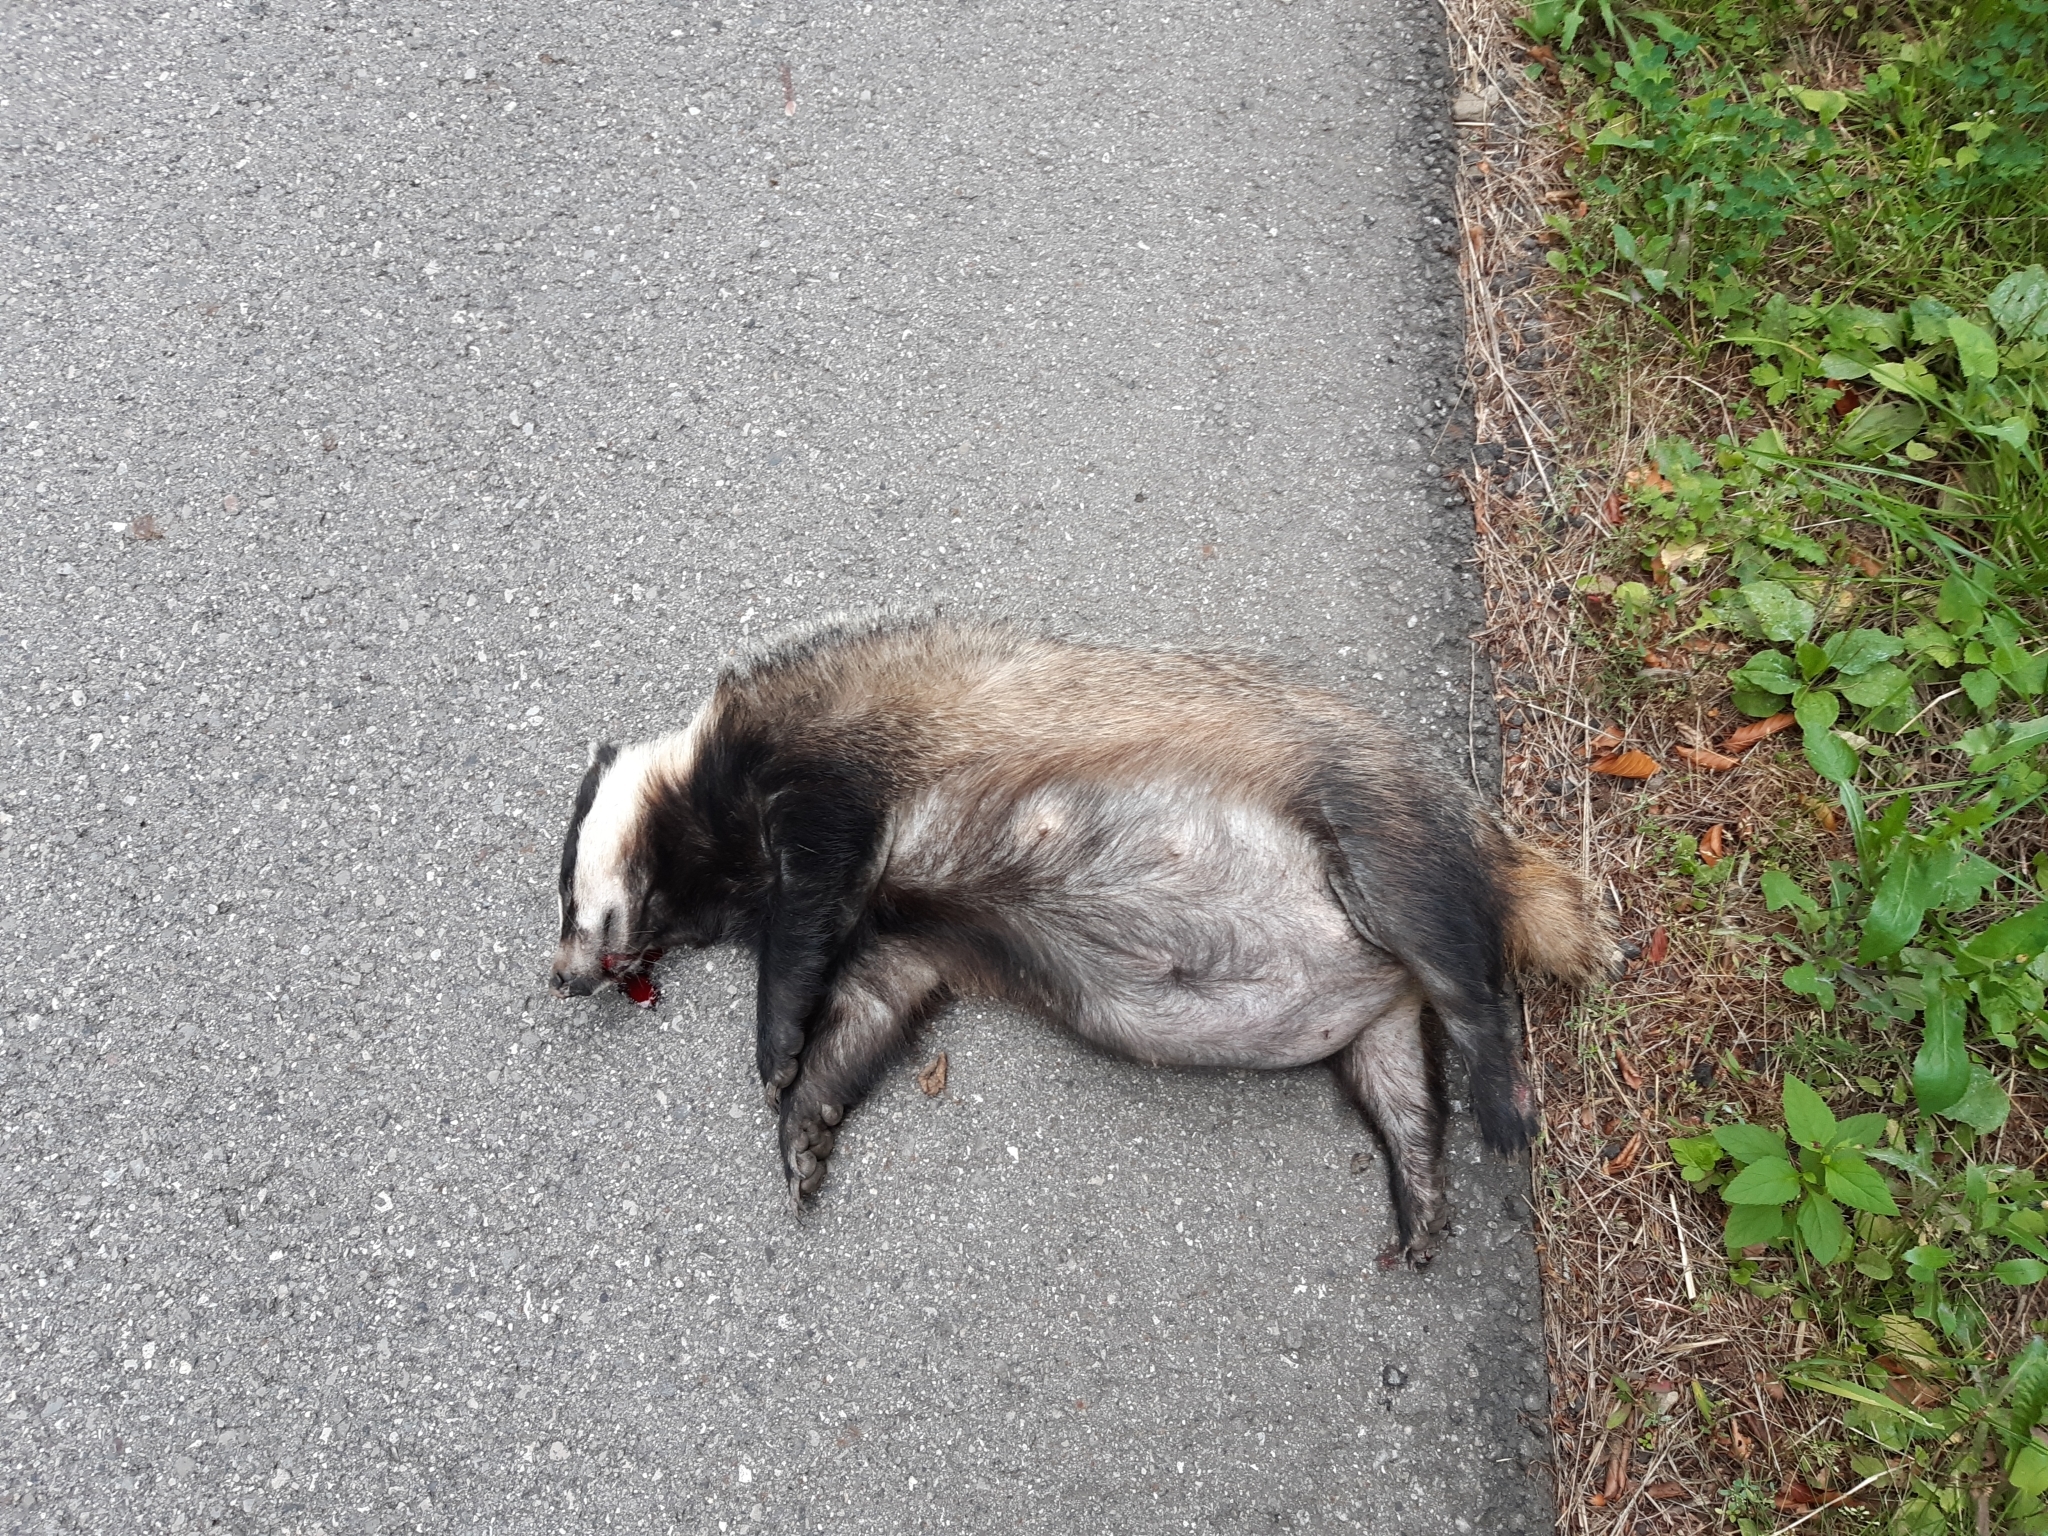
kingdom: Animalia
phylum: Chordata
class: Mammalia
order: Carnivora
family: Mustelidae
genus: Meles
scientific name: Meles meles
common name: Eurasian badger
